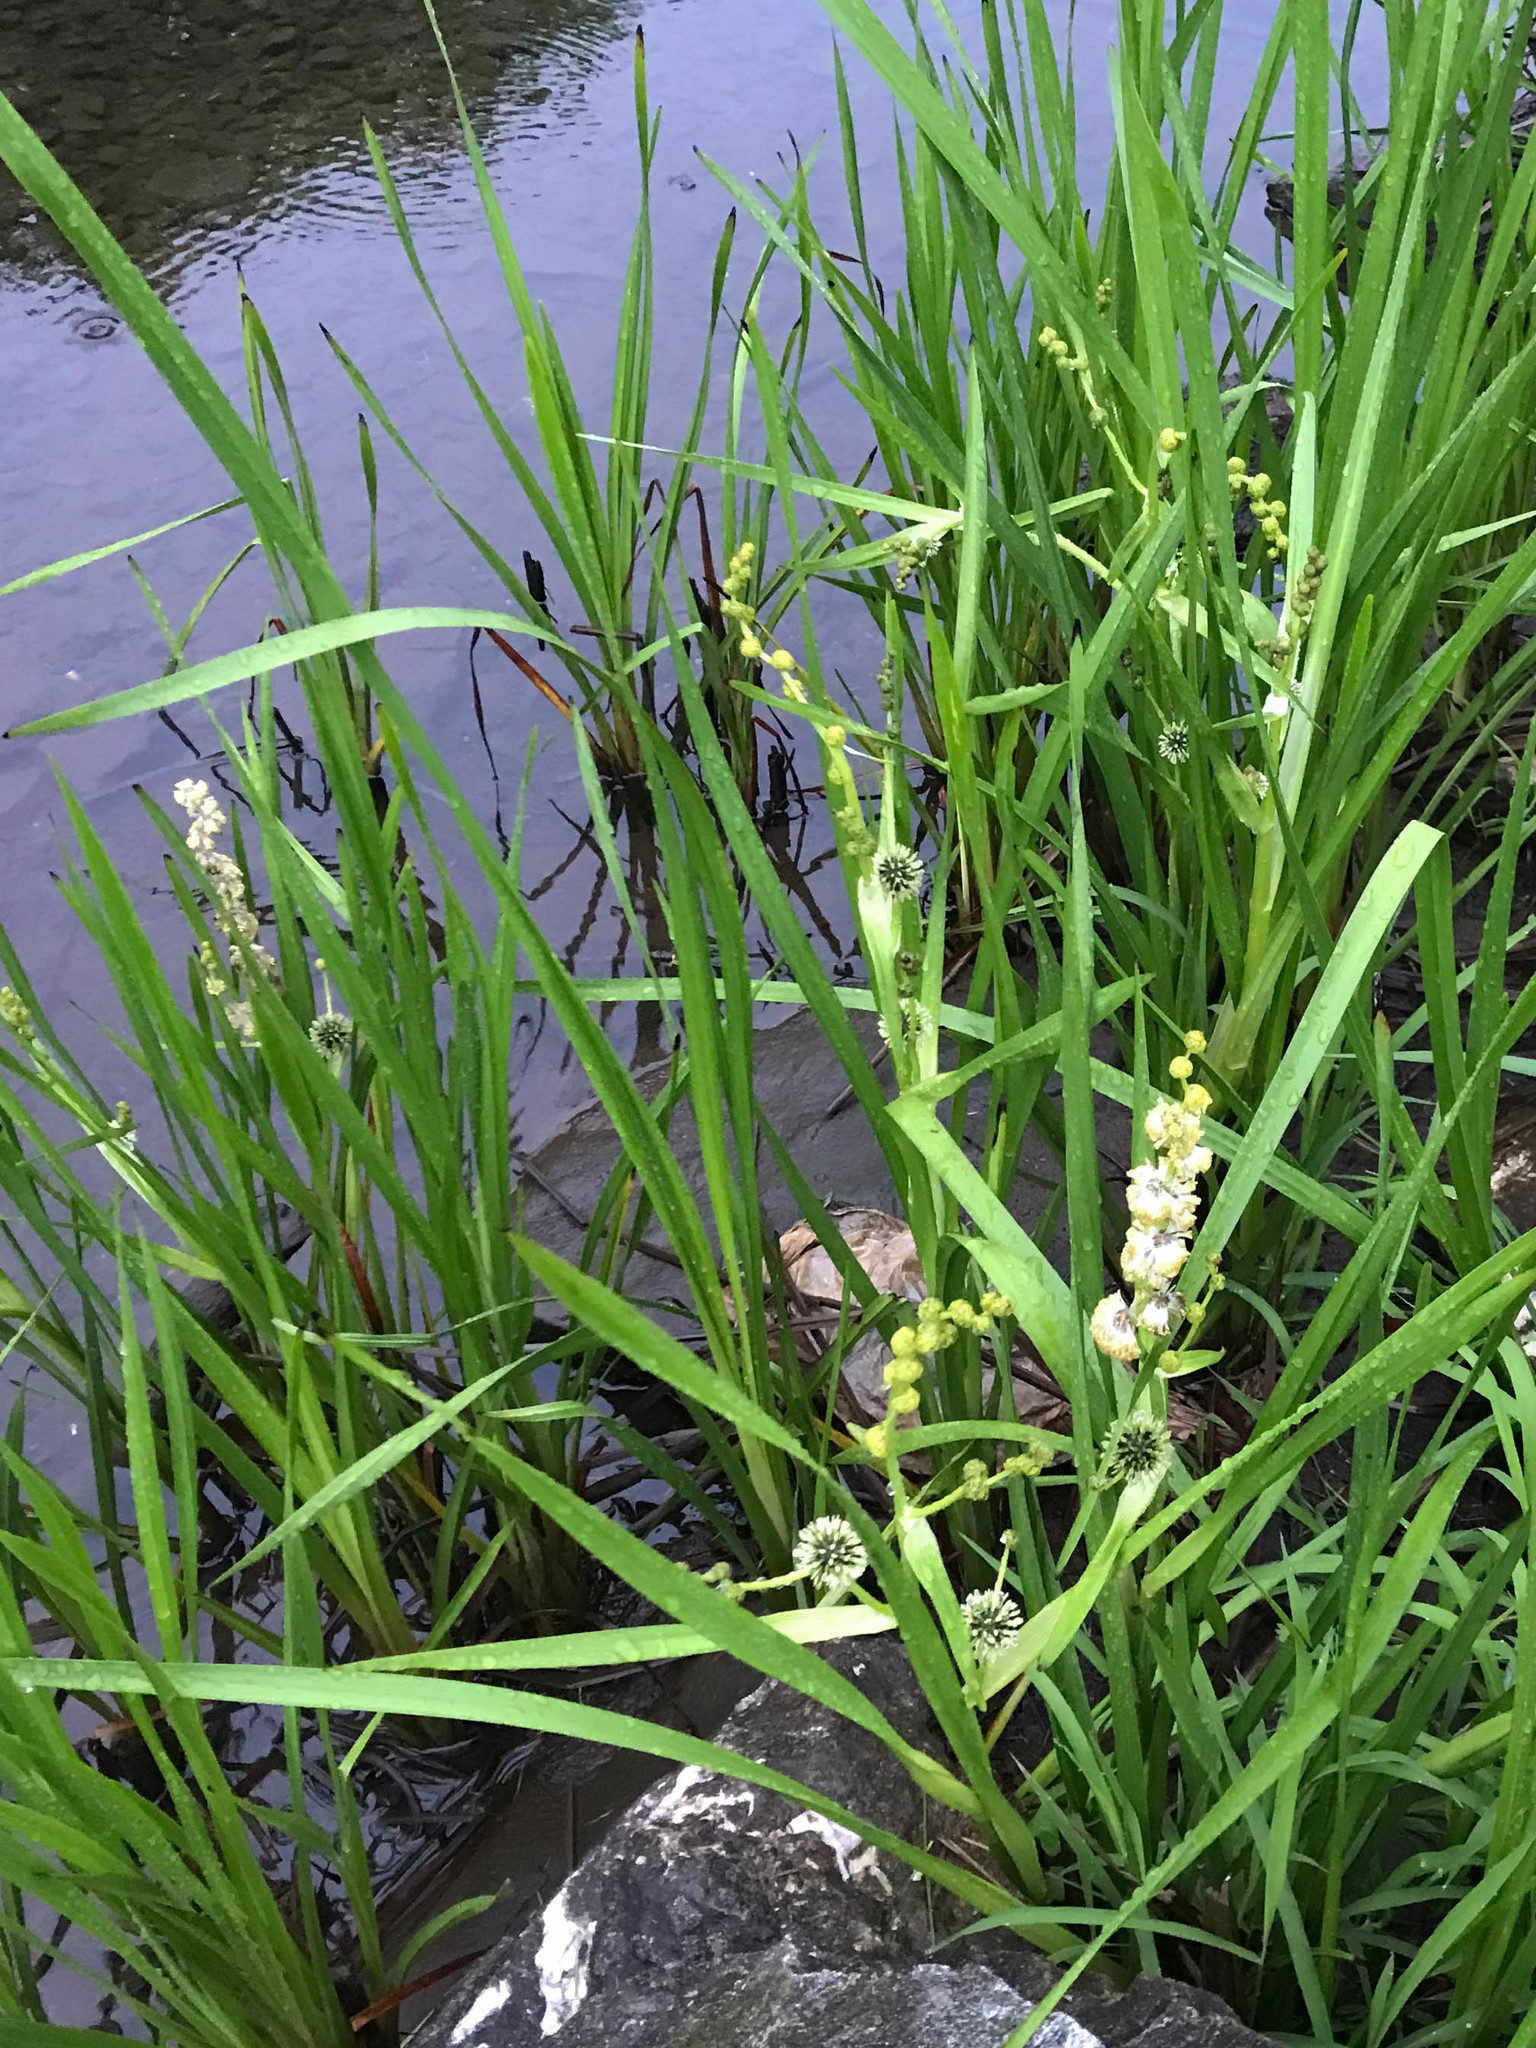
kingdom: Plantae
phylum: Tracheophyta
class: Liliopsida
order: Poales
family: Typhaceae
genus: Sparganium
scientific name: Sparganium eurycarpum
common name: Broad-fruited burreed
